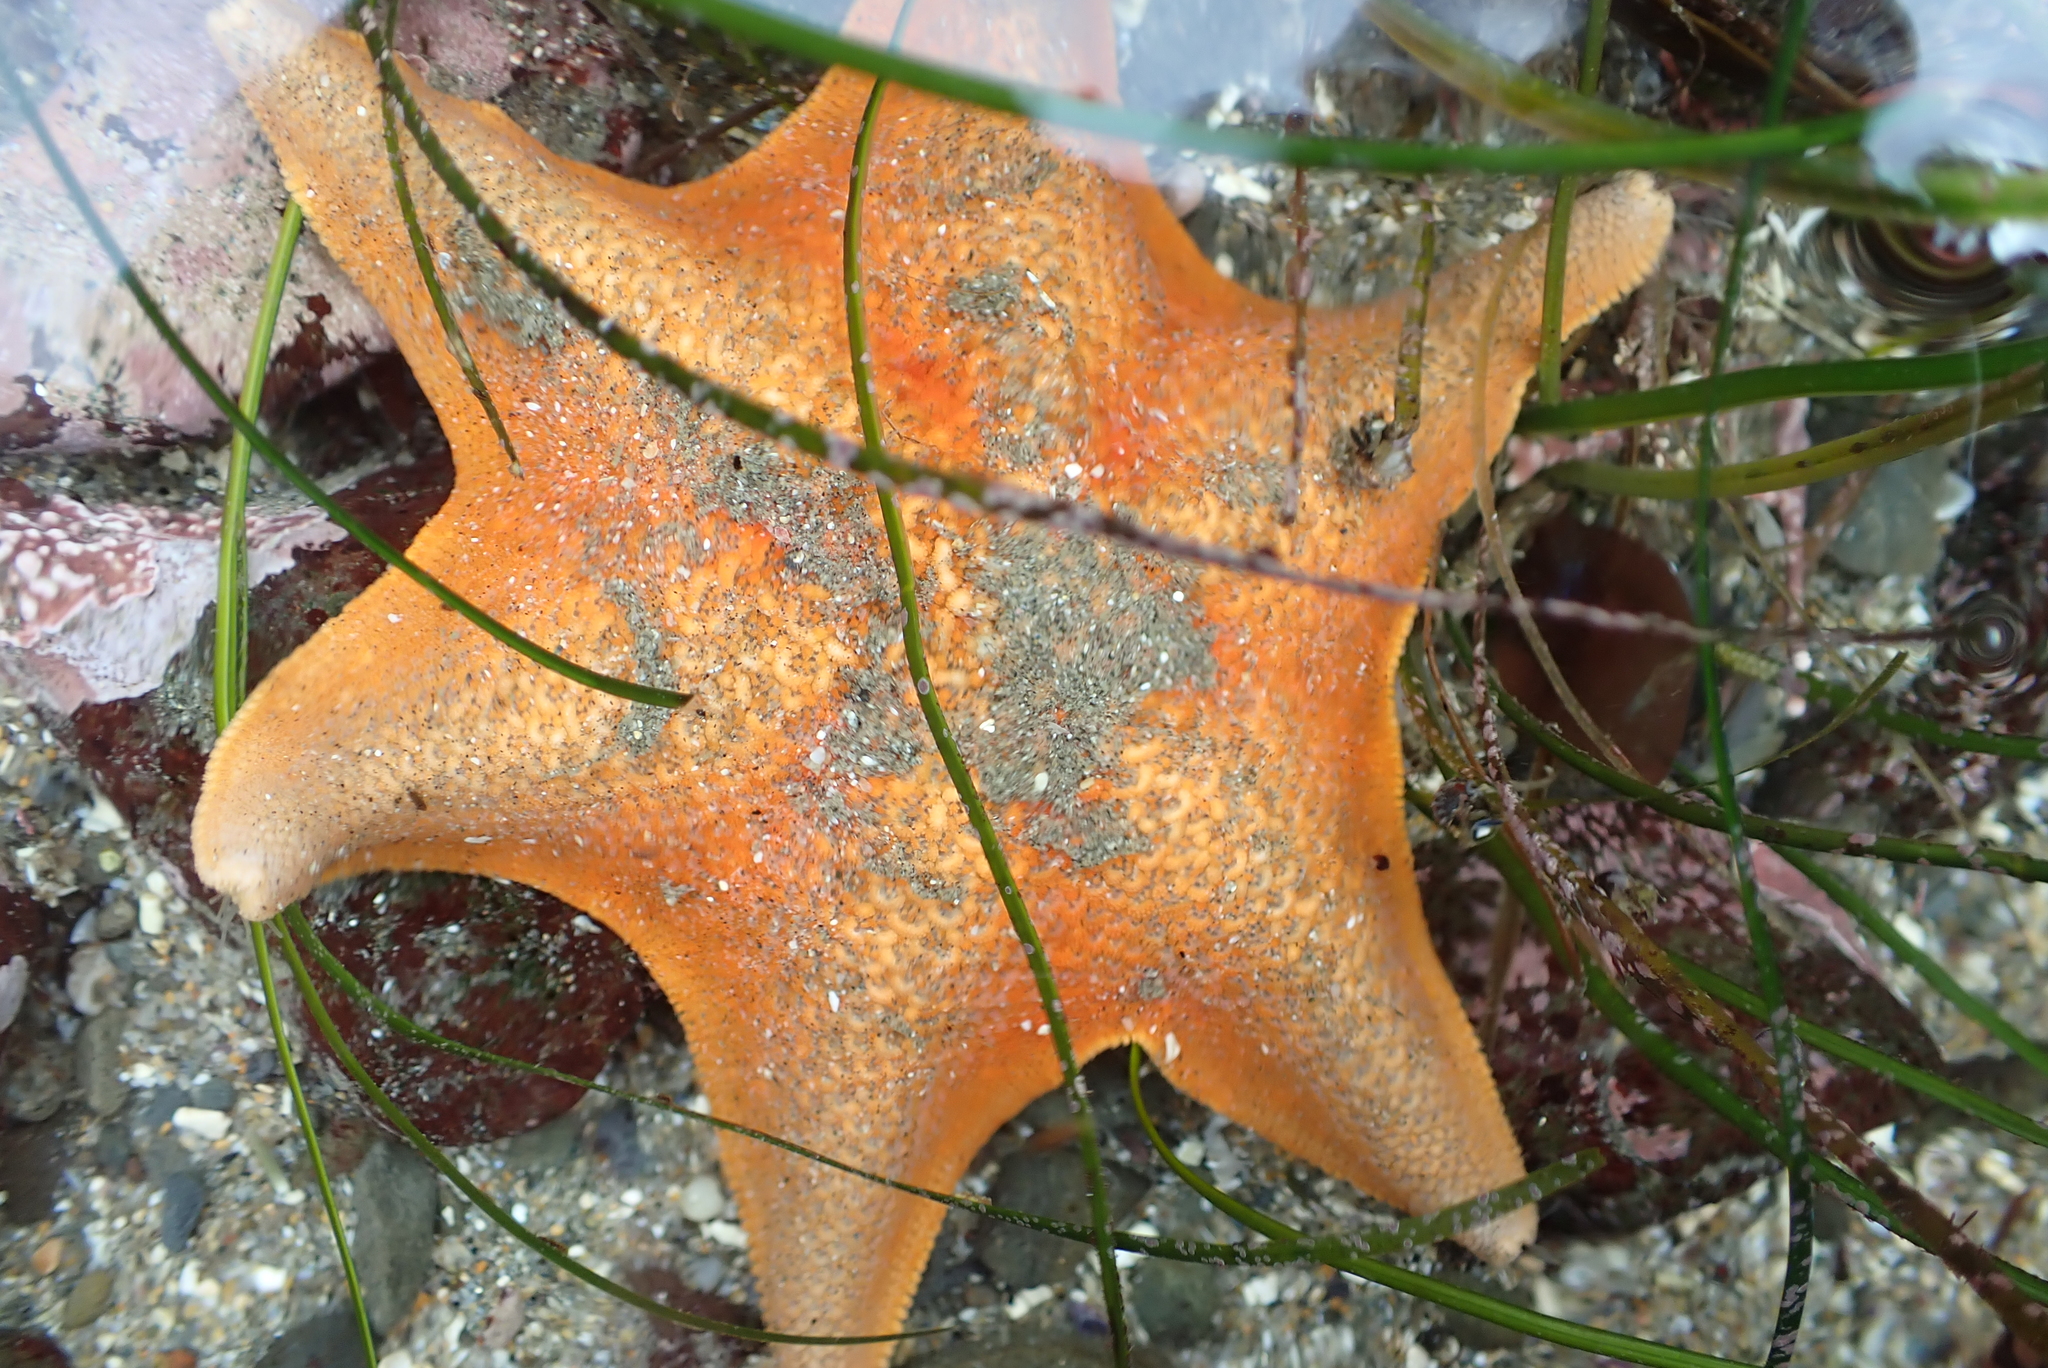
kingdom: Animalia
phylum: Echinodermata
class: Asteroidea
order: Valvatida
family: Asterinidae
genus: Patiria
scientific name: Patiria miniata
